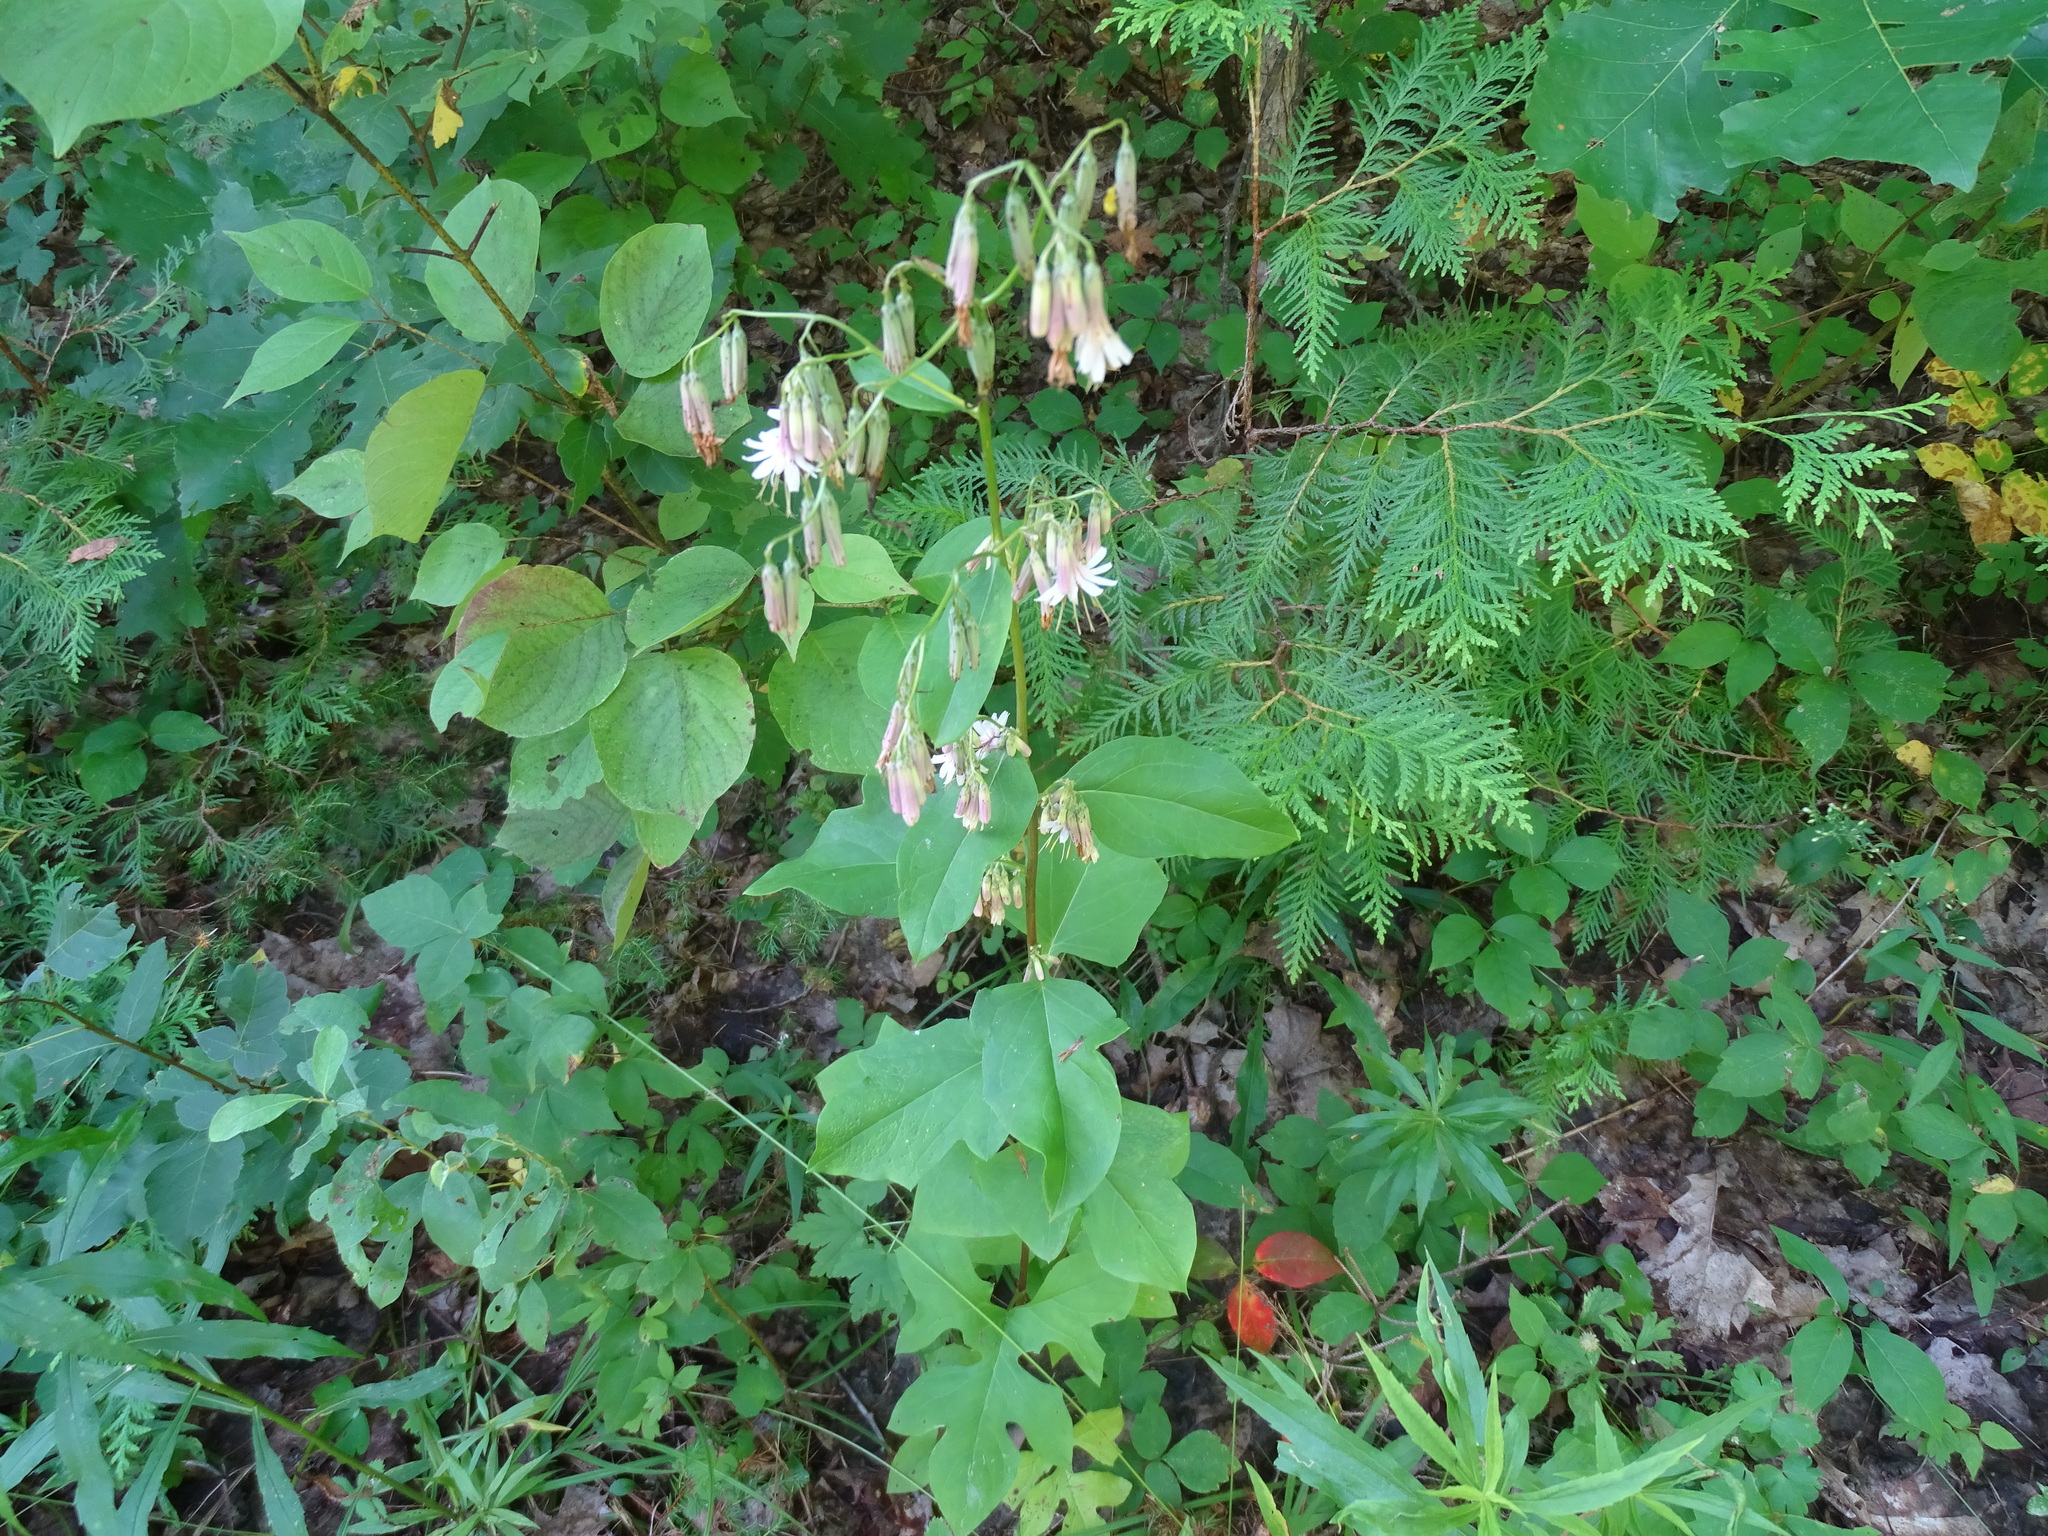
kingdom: Plantae
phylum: Tracheophyta
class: Magnoliopsida
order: Asterales
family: Asteraceae
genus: Nabalus
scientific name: Nabalus albus
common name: White rattlesnakeroot
